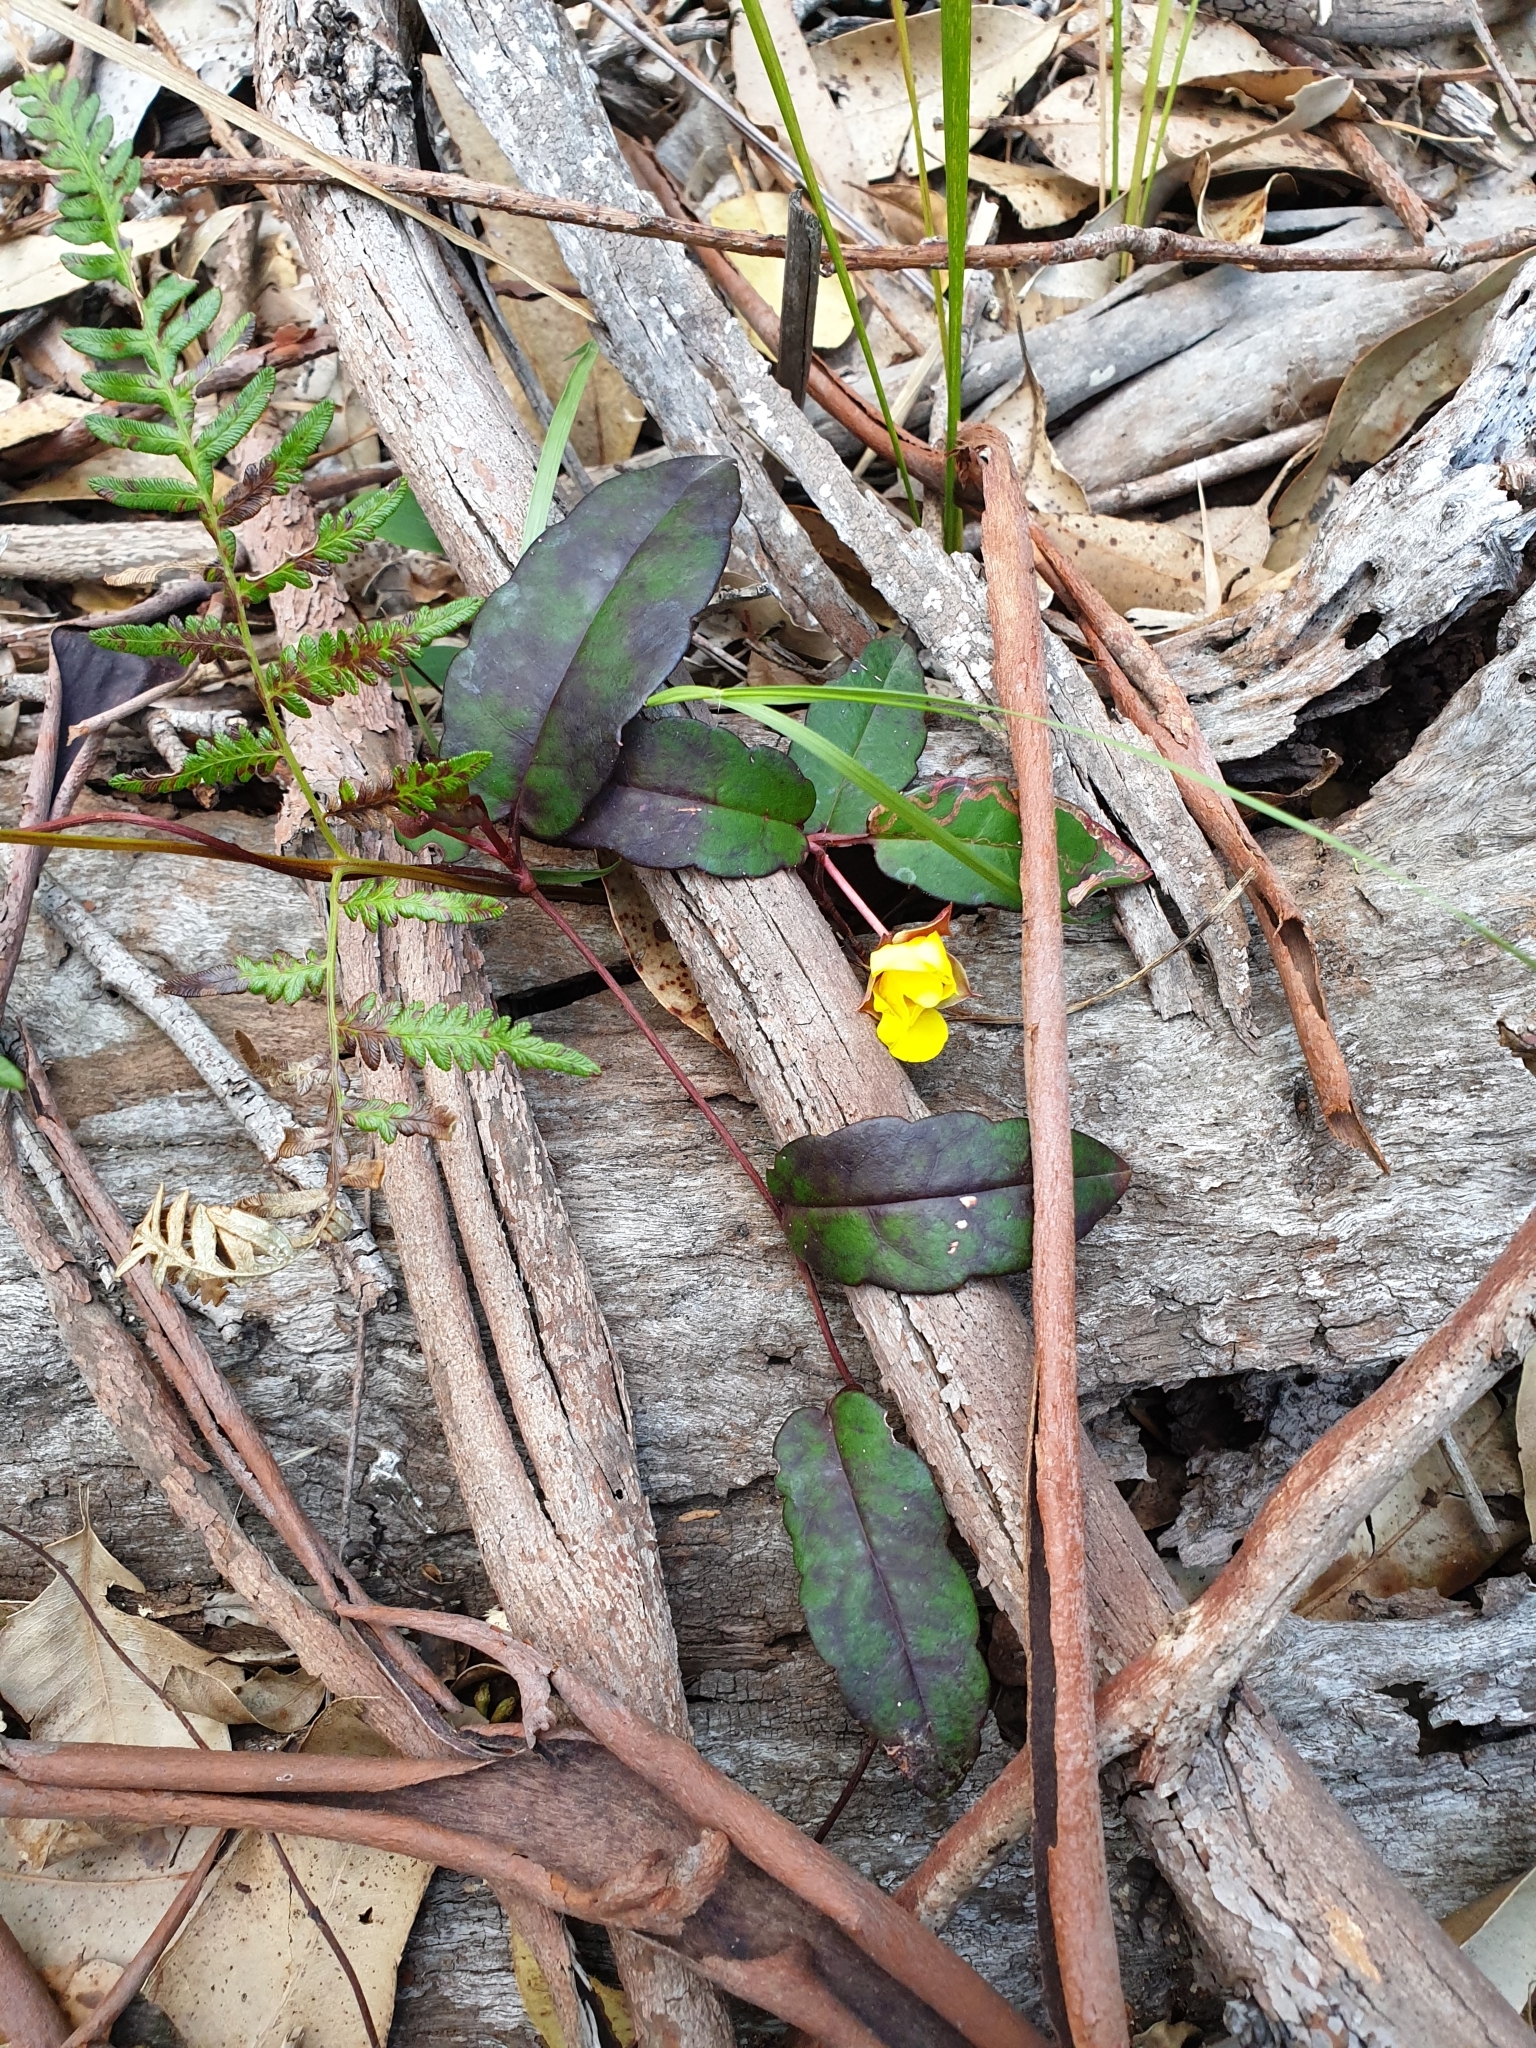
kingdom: Plantae
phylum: Tracheophyta
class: Magnoliopsida
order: Dilleniales
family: Dilleniaceae
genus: Hibbertia
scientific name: Hibbertia dentata
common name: Trailing guinea-flower
